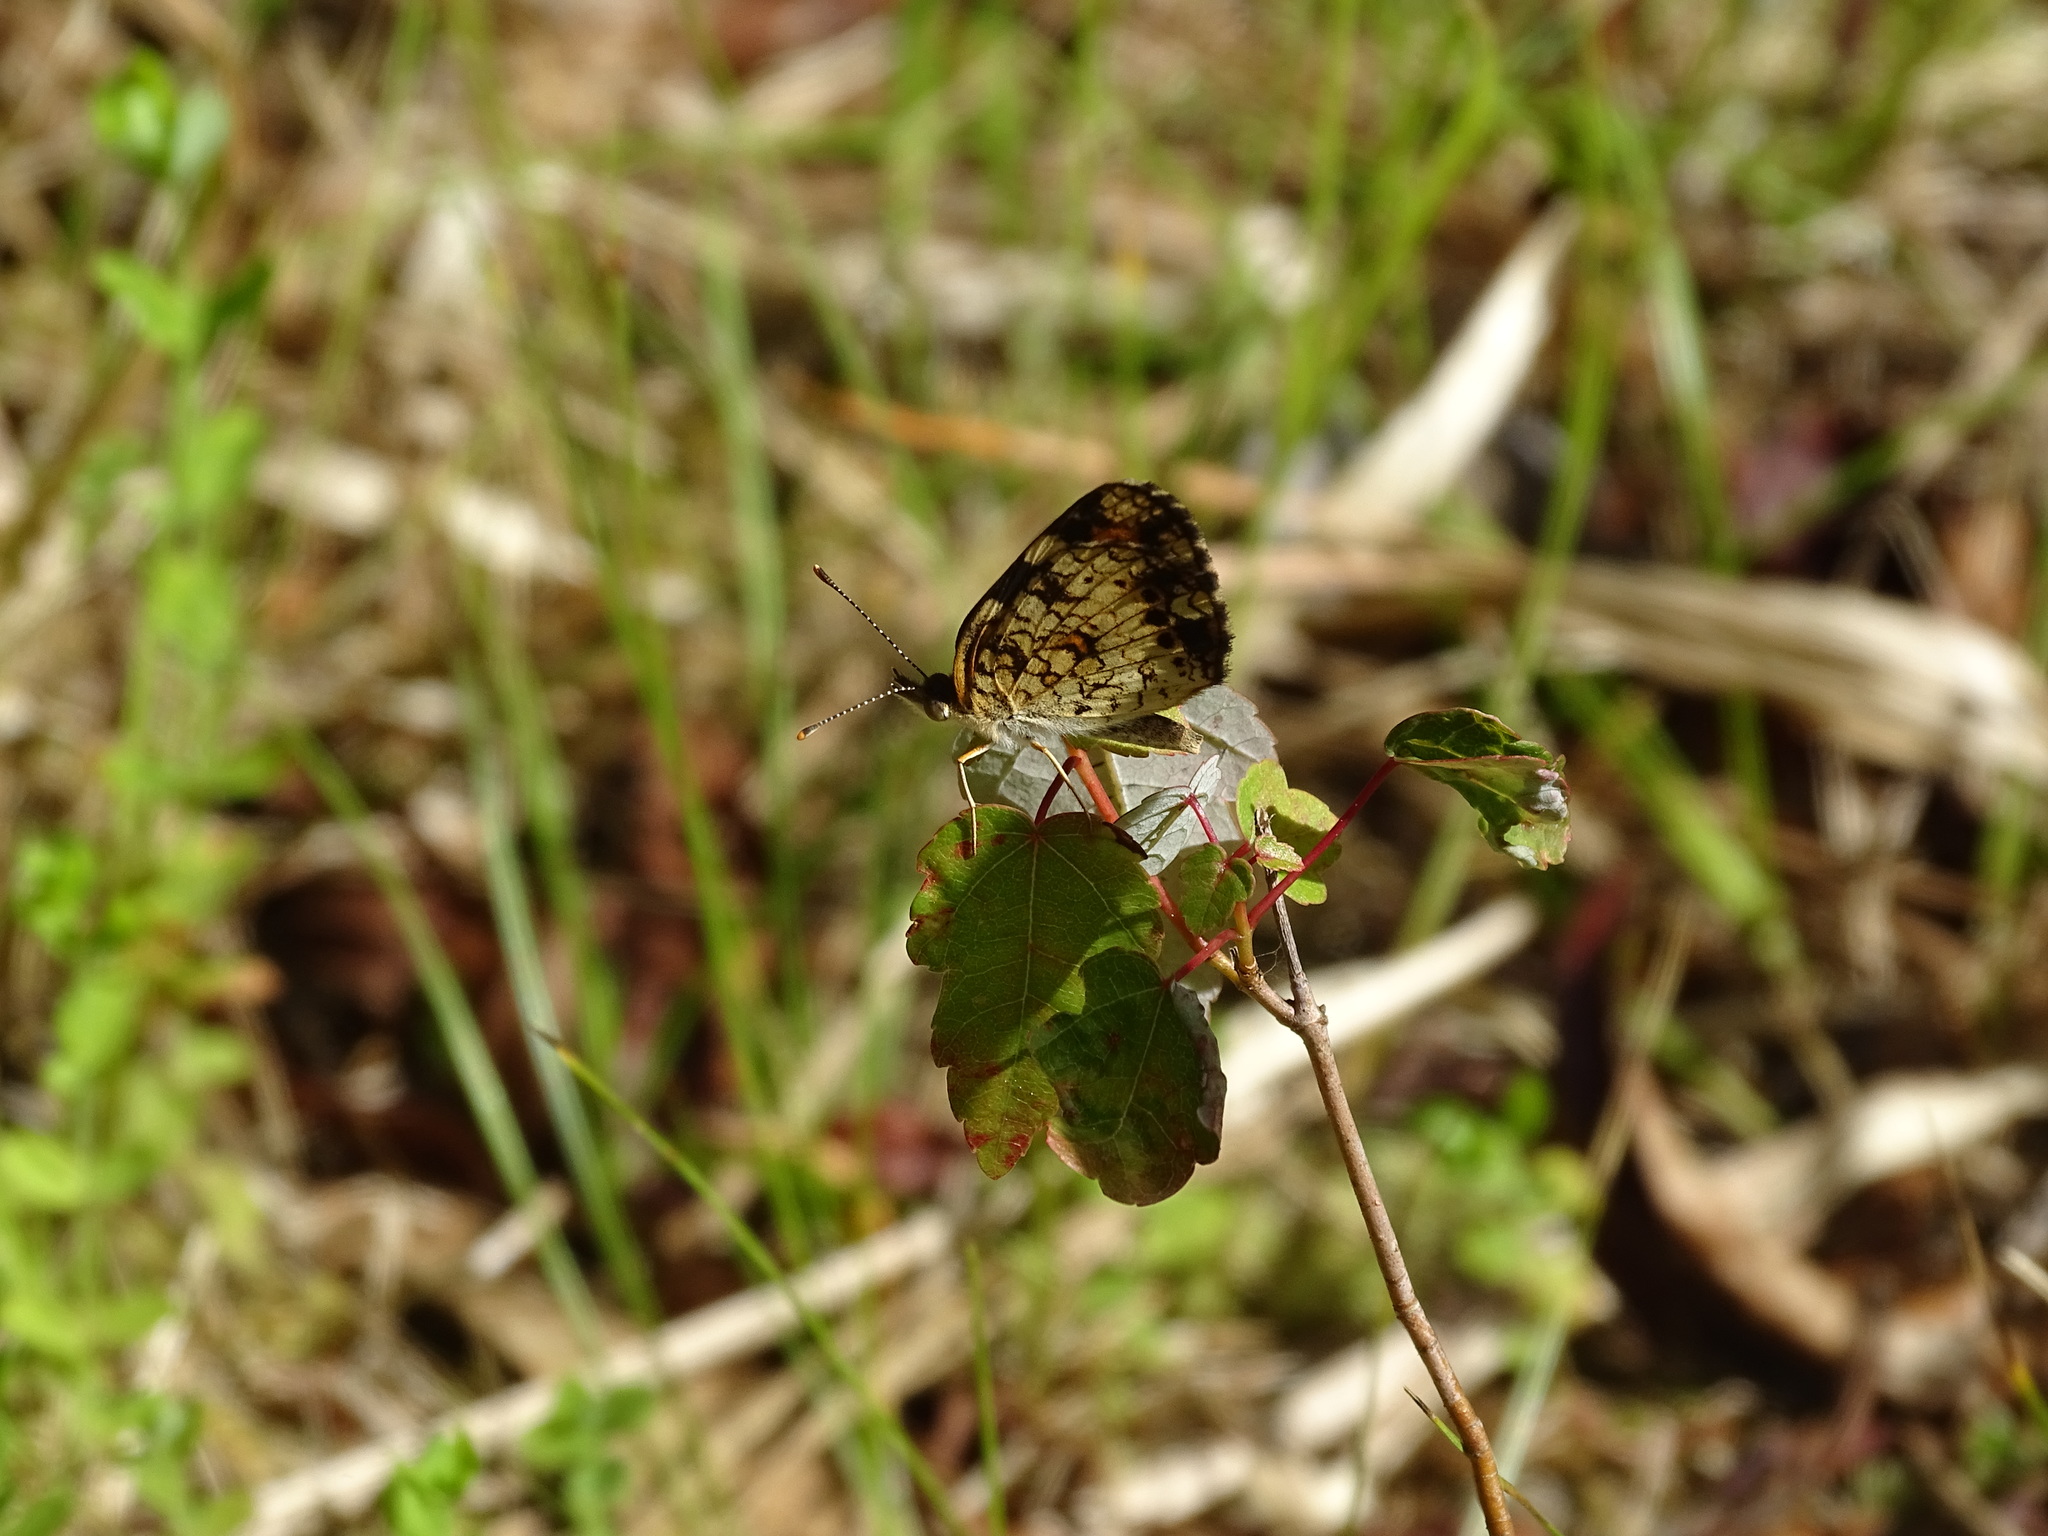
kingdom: Animalia
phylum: Arthropoda
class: Insecta
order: Lepidoptera
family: Nymphalidae
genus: Phyciodes
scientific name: Phyciodes phaon
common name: Phaon crescent
